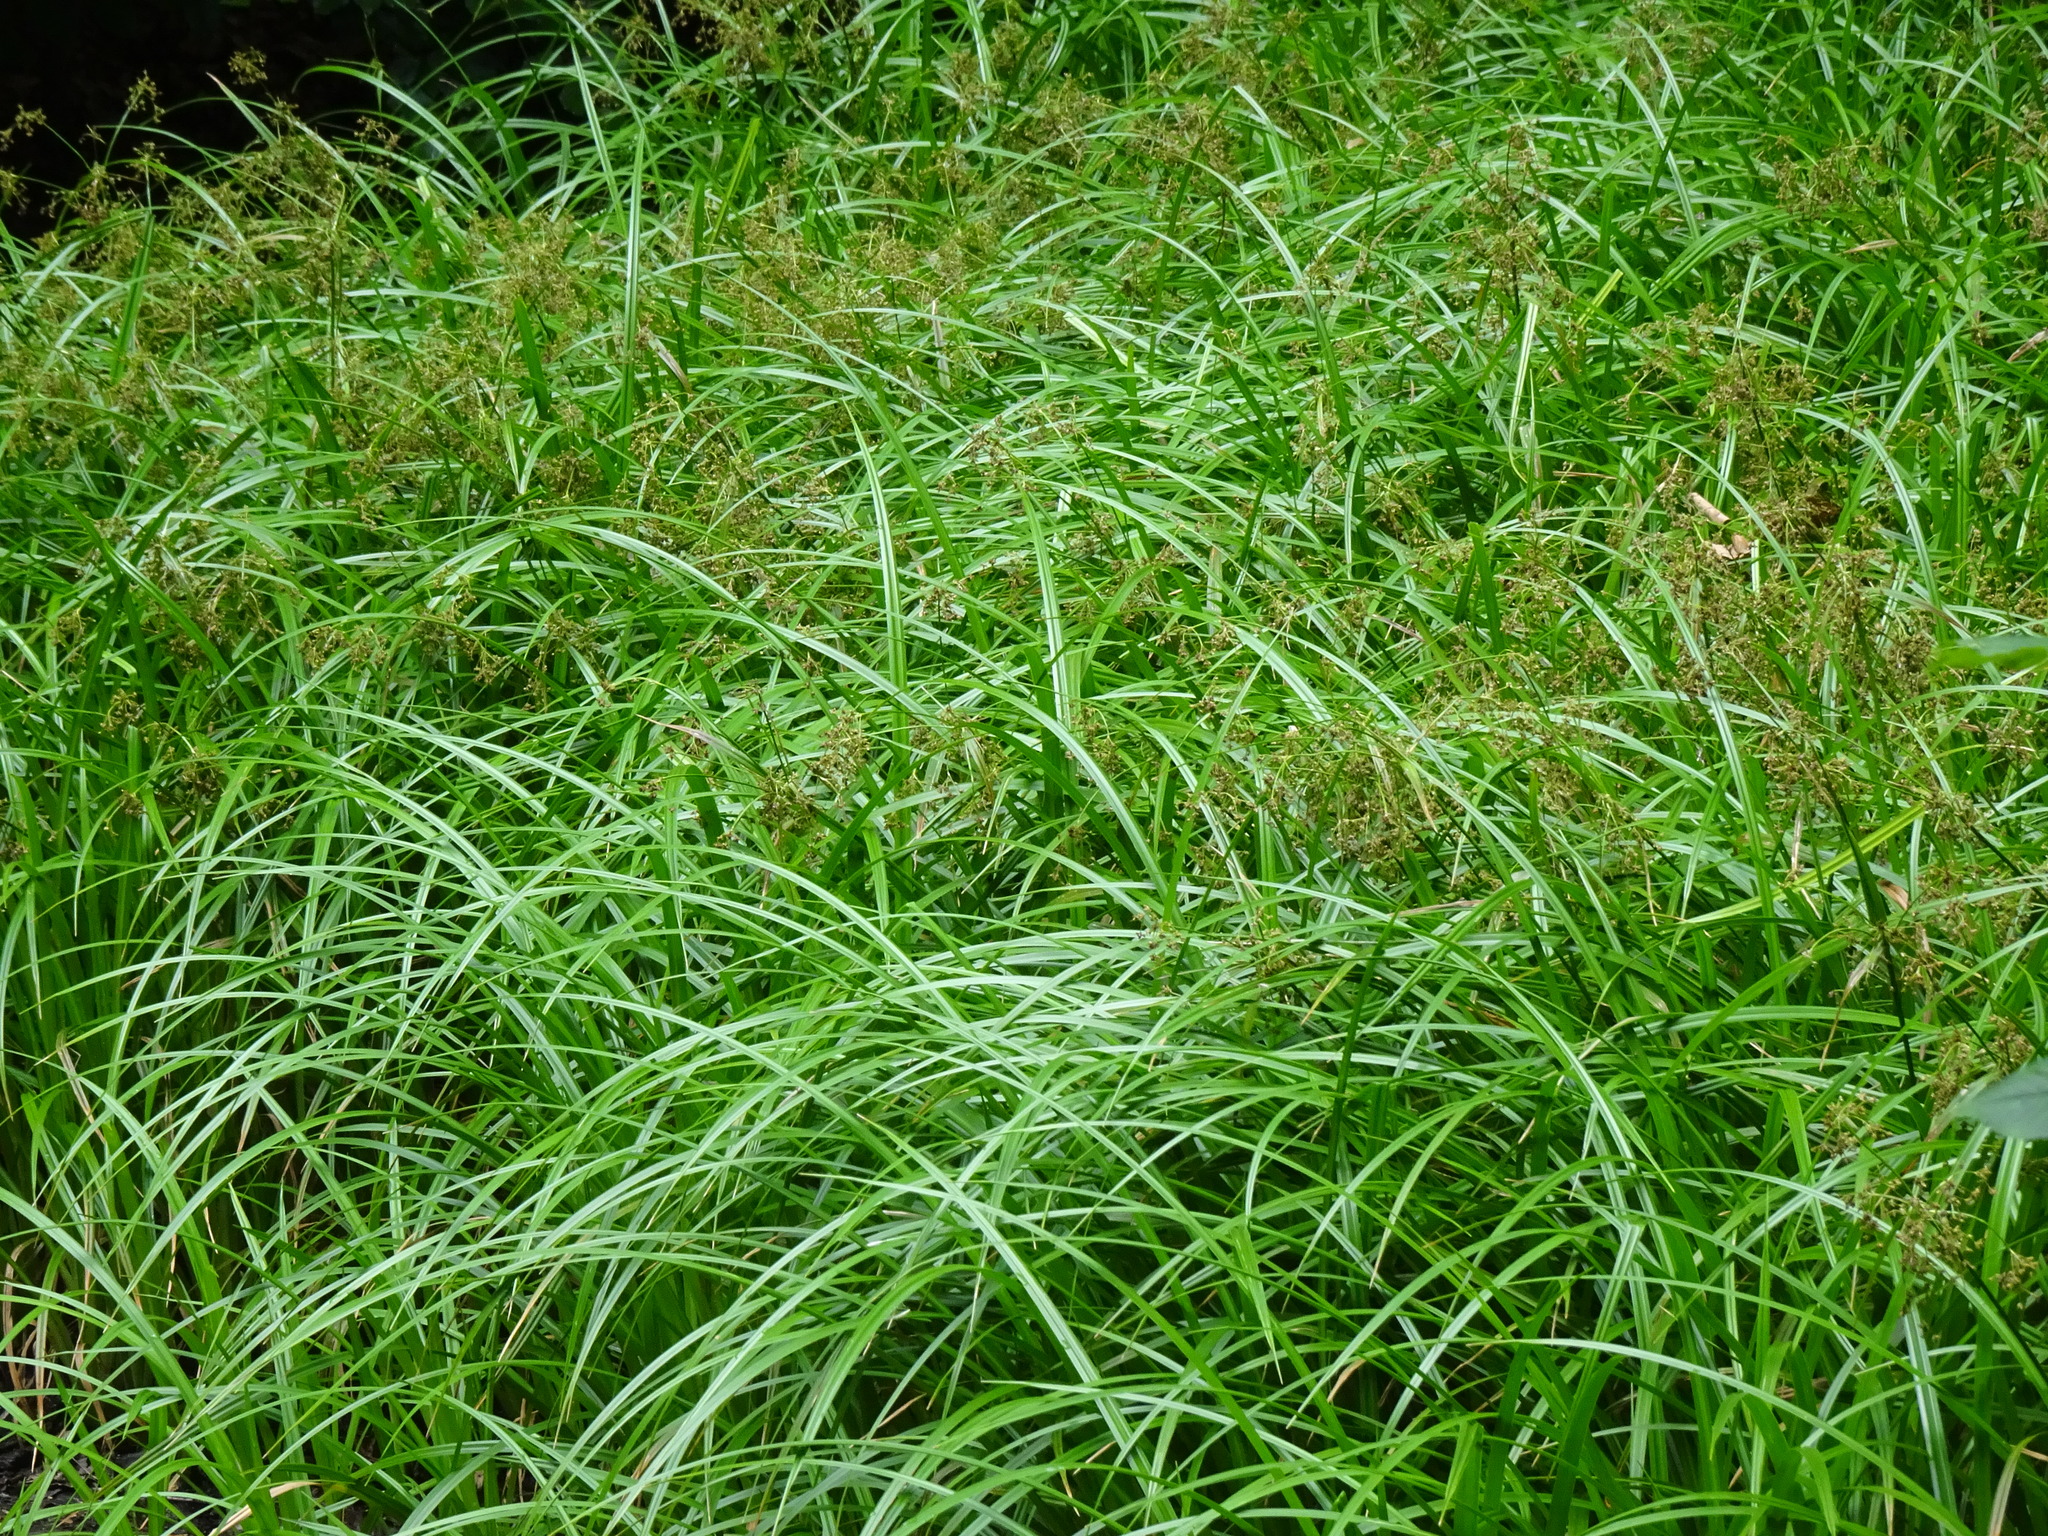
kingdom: Plantae
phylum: Tracheophyta
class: Liliopsida
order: Poales
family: Cyperaceae
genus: Scirpus
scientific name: Scirpus sylvaticus
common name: Wood club-rush
